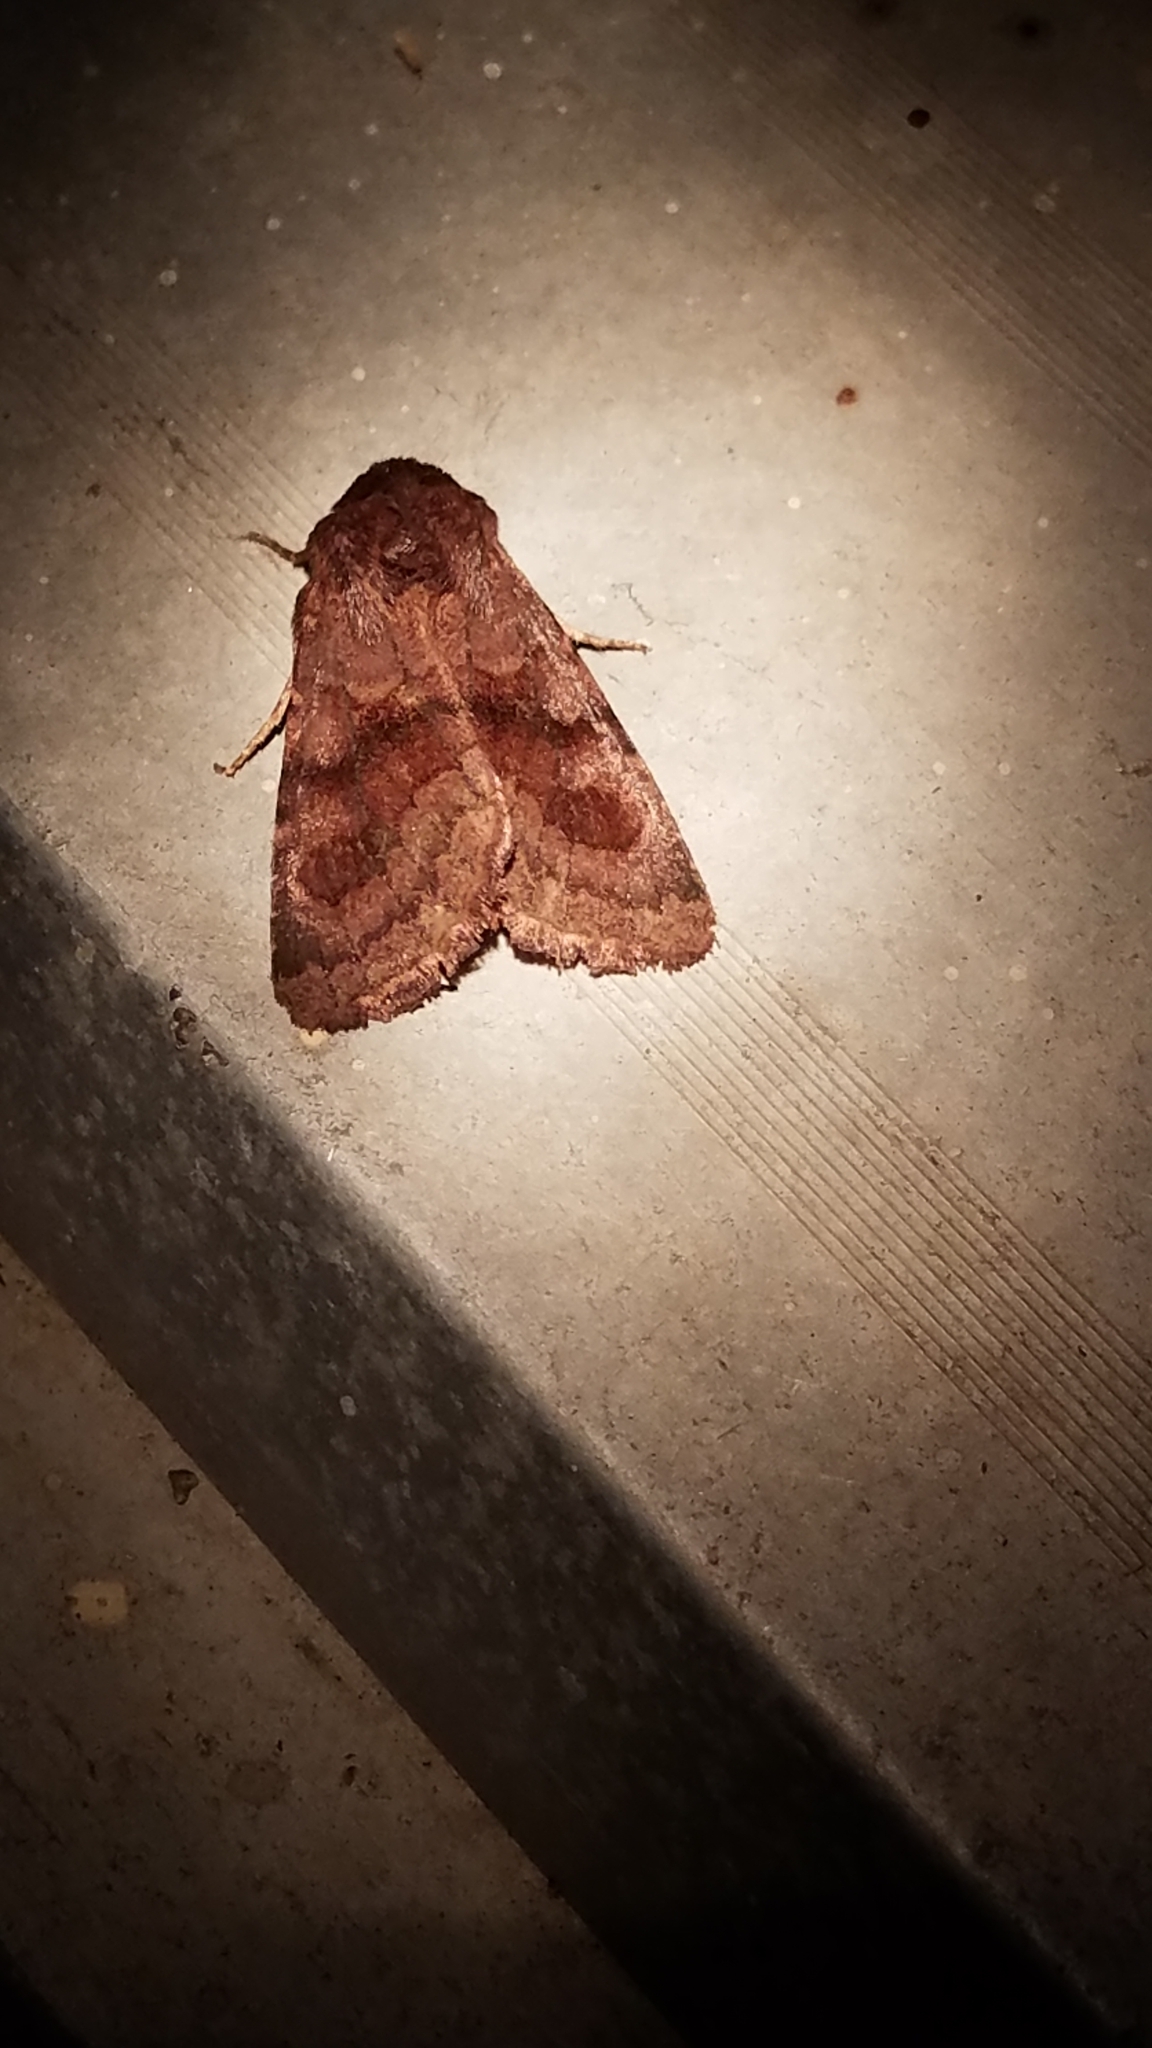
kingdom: Animalia
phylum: Arthropoda
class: Insecta
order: Lepidoptera
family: Noctuidae
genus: Nephelodes
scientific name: Nephelodes minians
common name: Bronzed cutworm
